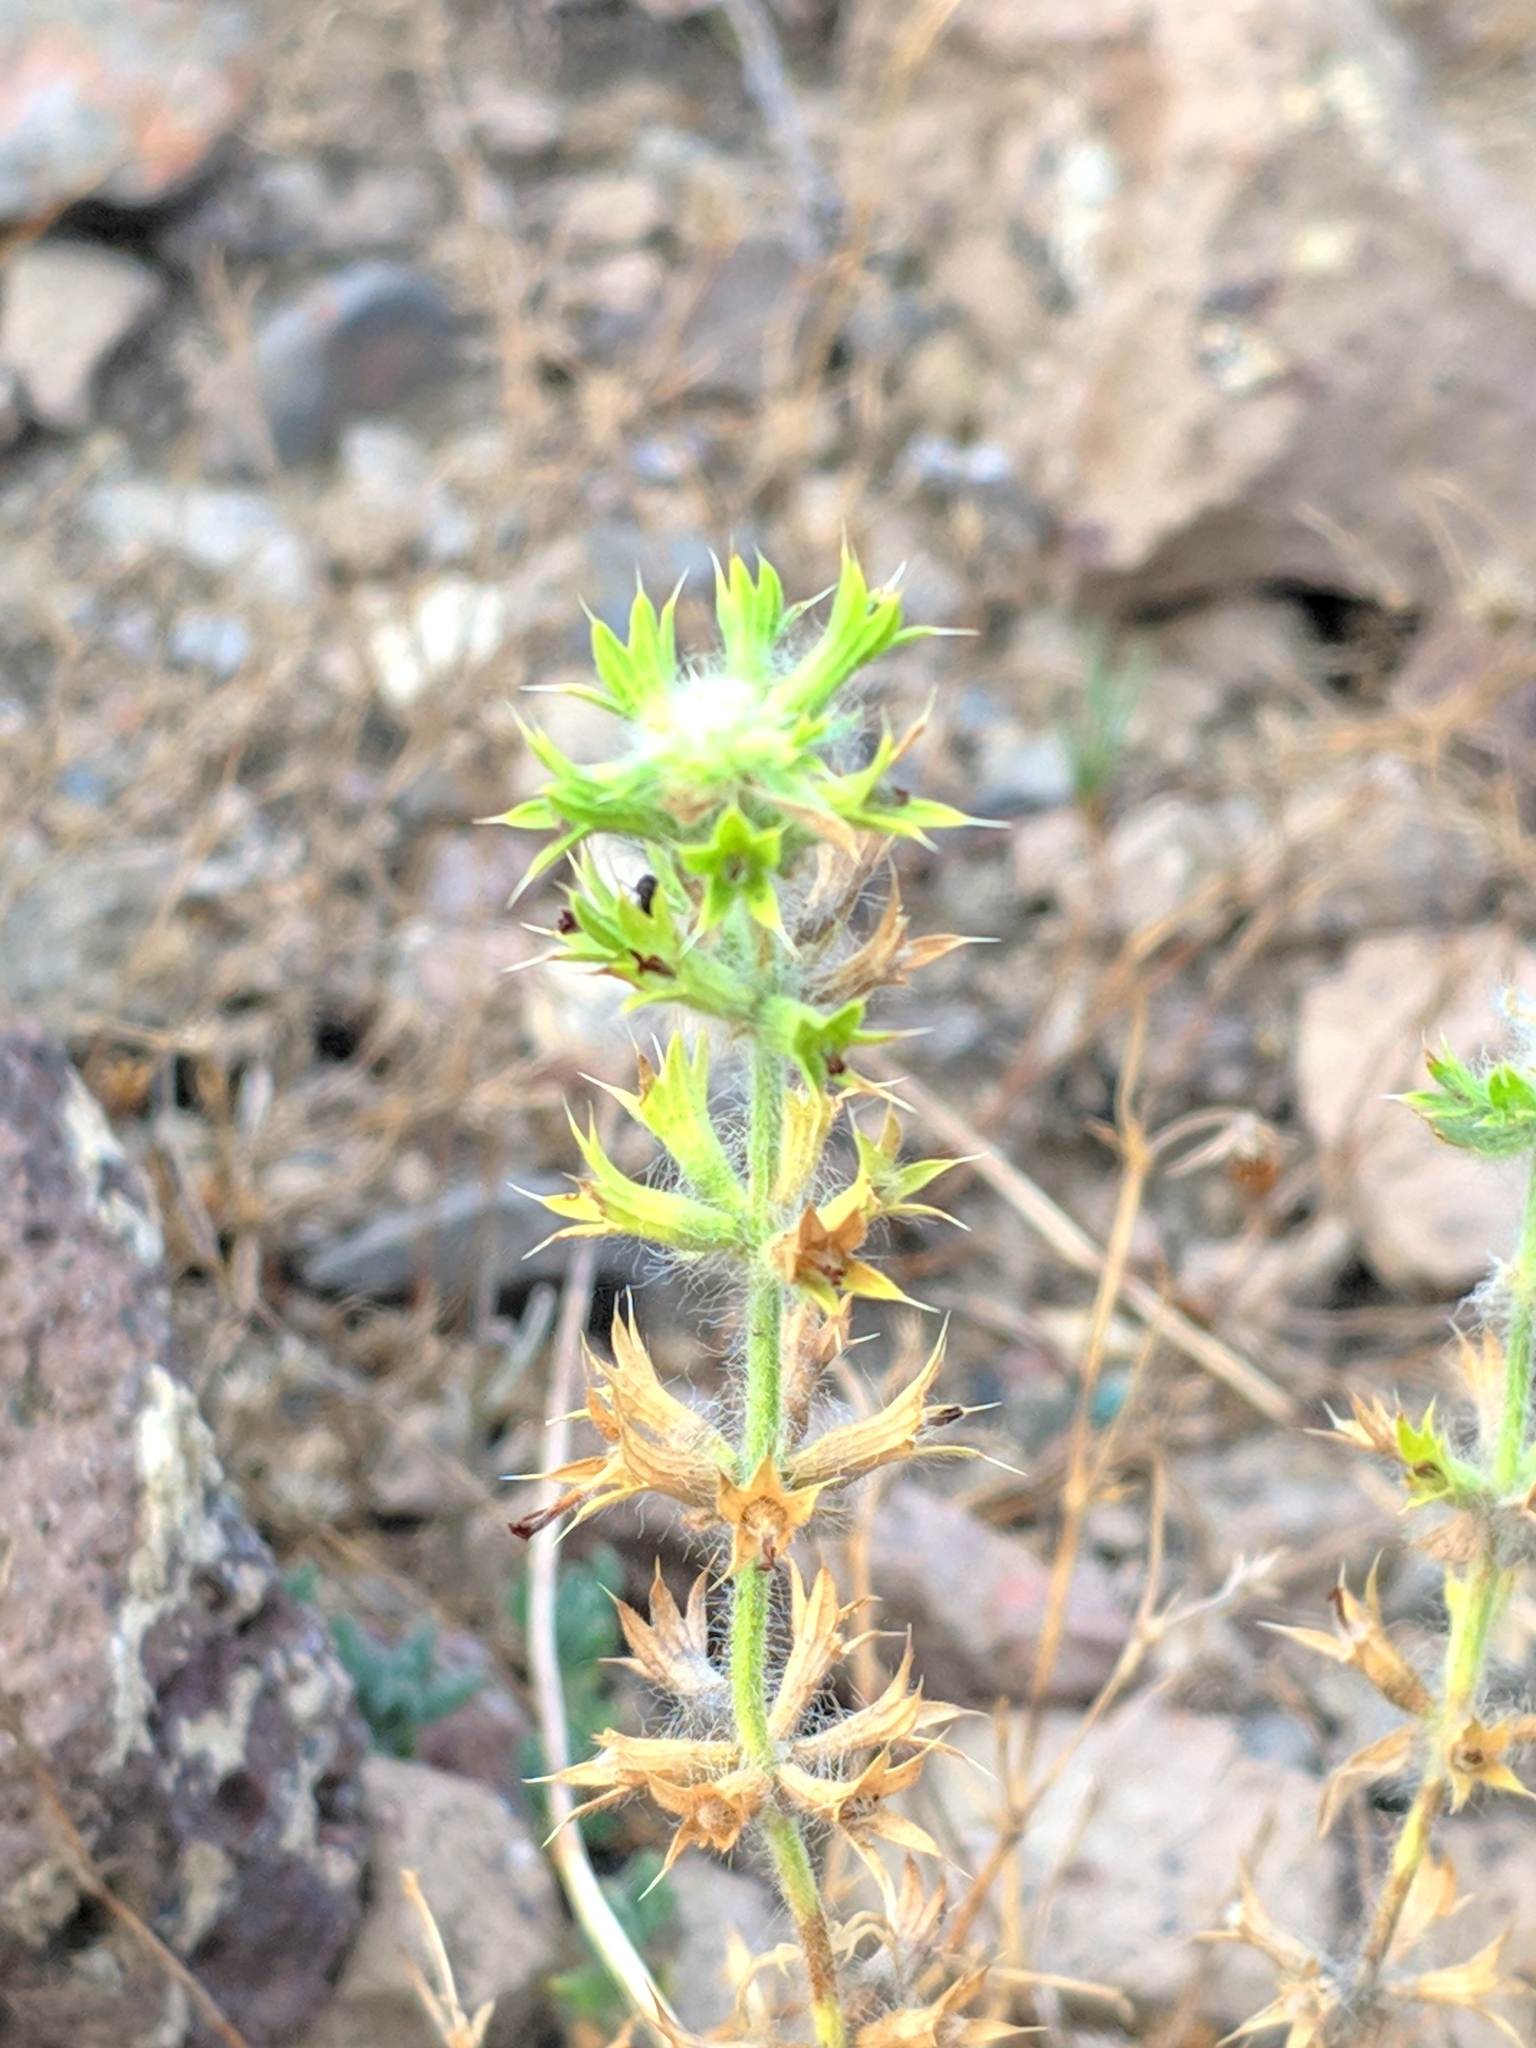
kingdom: Plantae
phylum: Tracheophyta
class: Magnoliopsida
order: Lamiales
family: Lamiaceae
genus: Sideritis
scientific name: Sideritis montana
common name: Mountain ironwort
